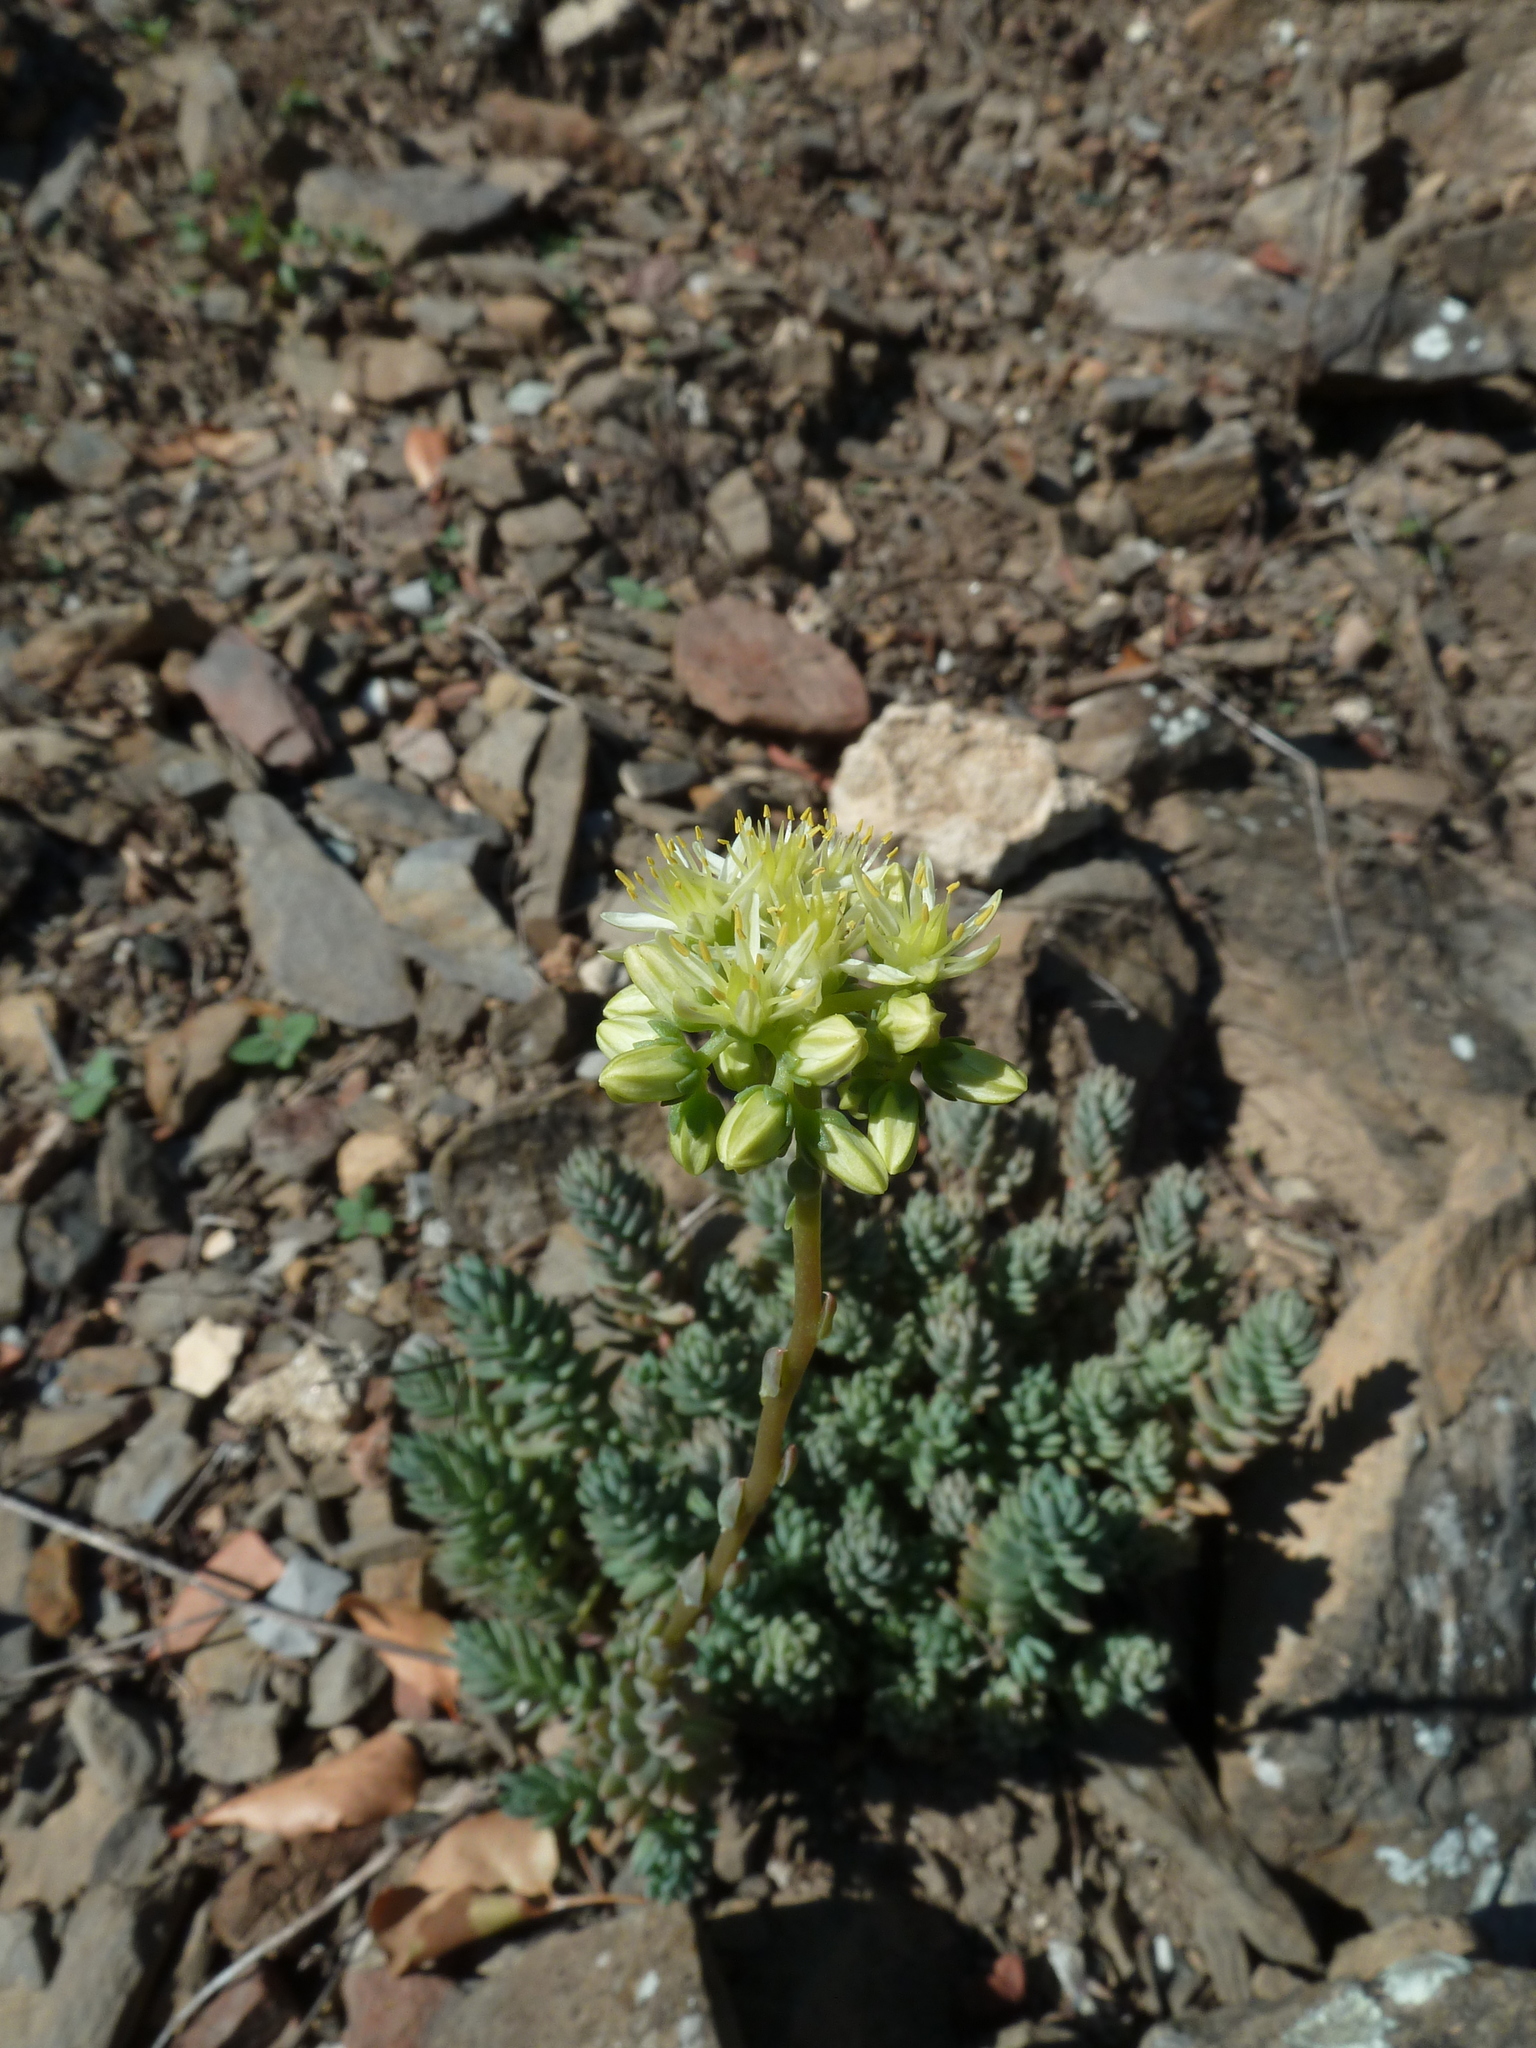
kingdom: Plantae
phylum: Tracheophyta
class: Magnoliopsida
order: Saxifragales
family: Crassulaceae
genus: Petrosedum
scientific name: Petrosedum sediforme
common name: Pale stonecrop
